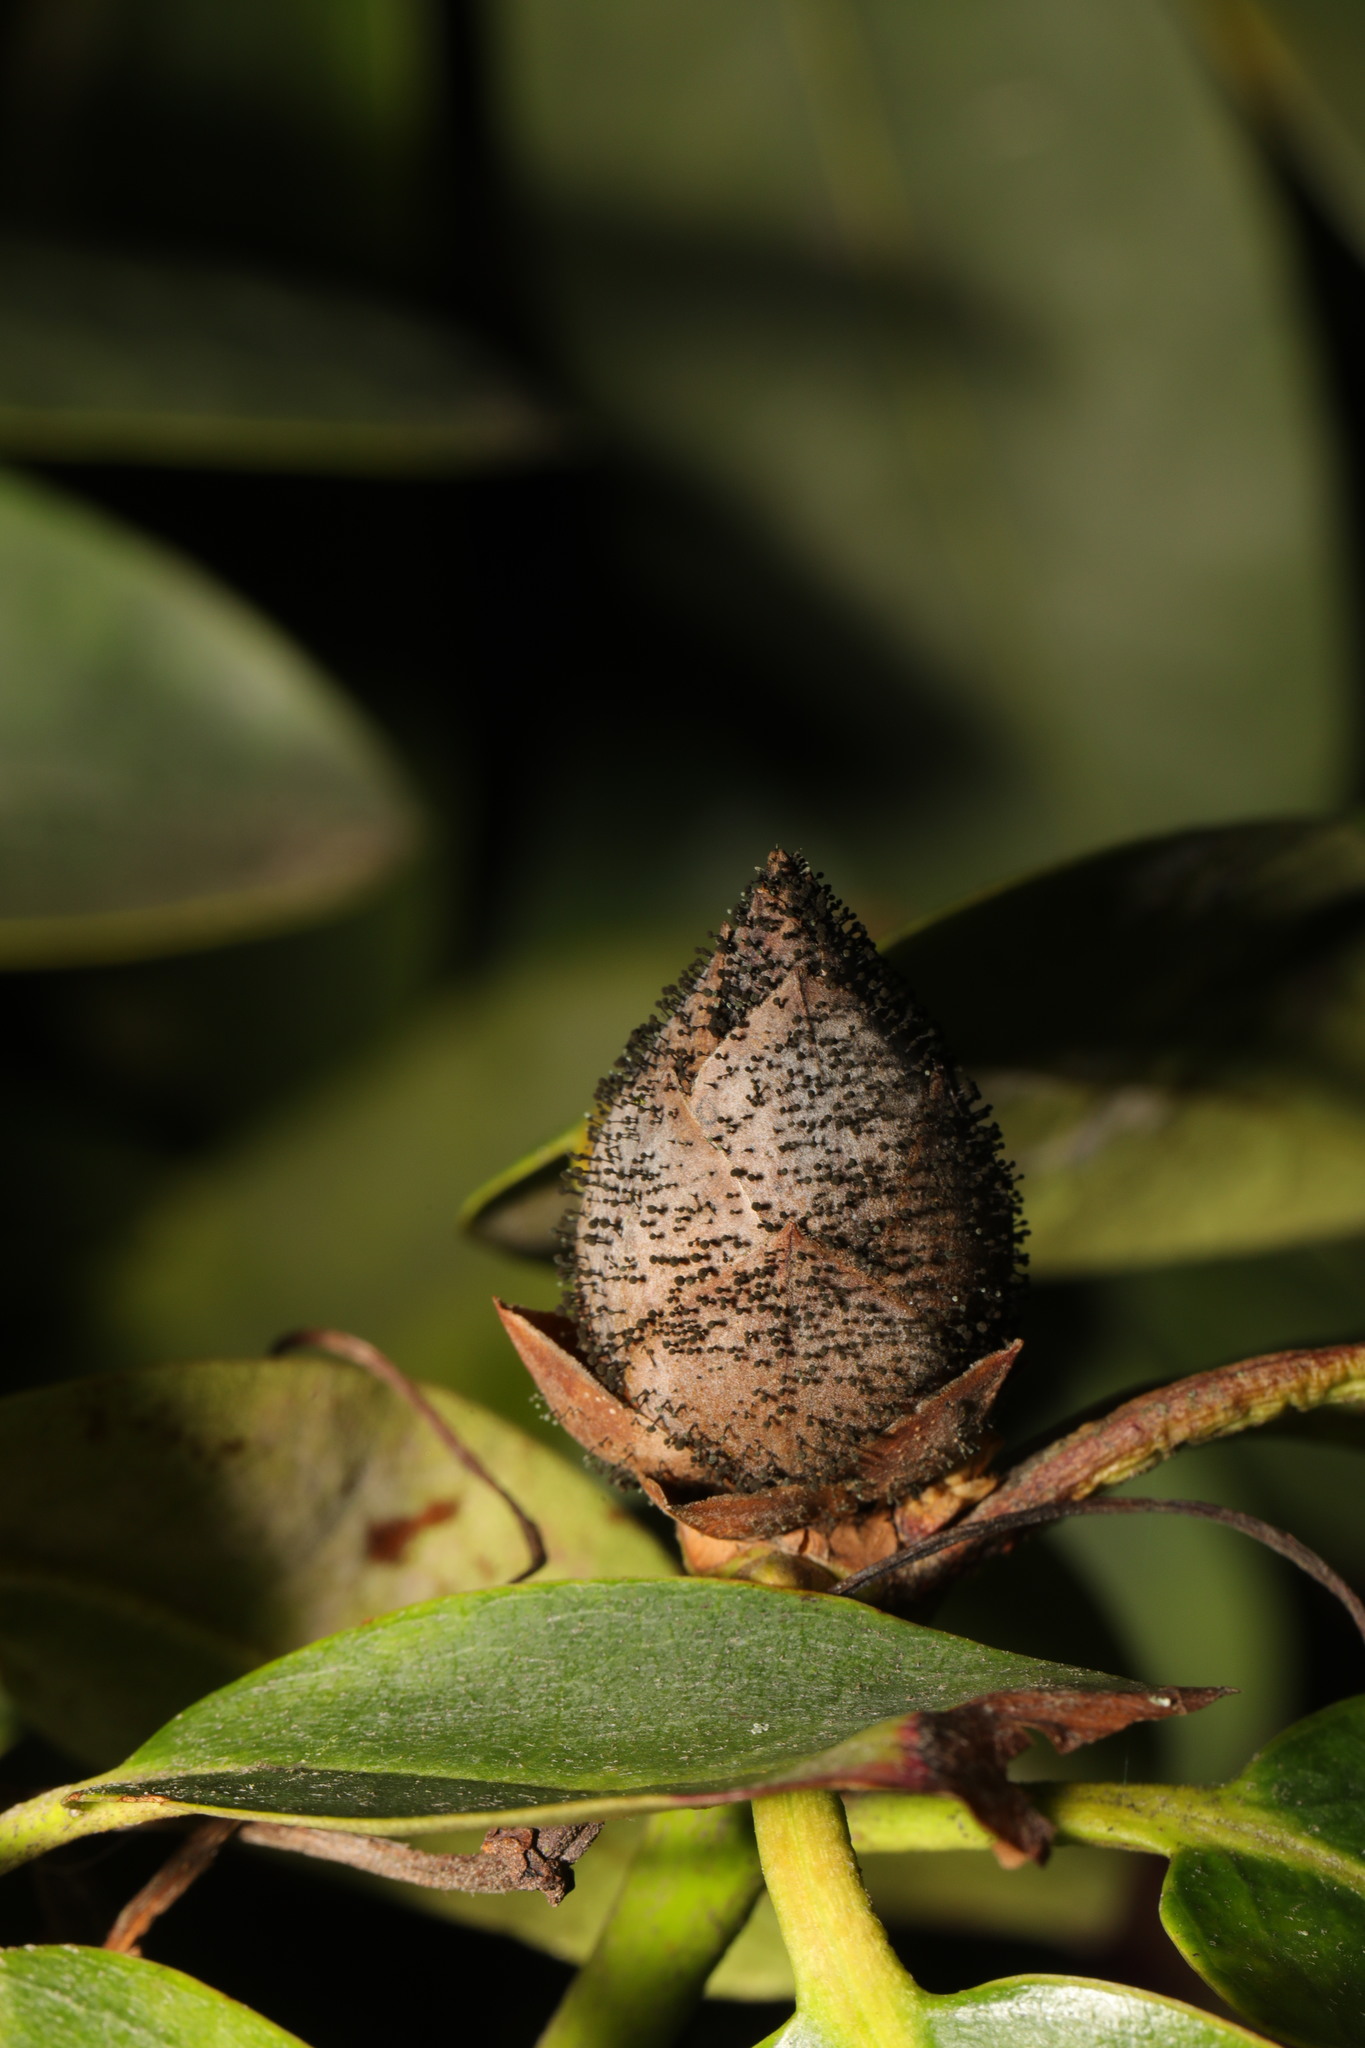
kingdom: Fungi
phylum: Ascomycota
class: Dothideomycetes
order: Pleosporales
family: Melanommataceae
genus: Seifertia
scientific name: Seifertia azaleae
